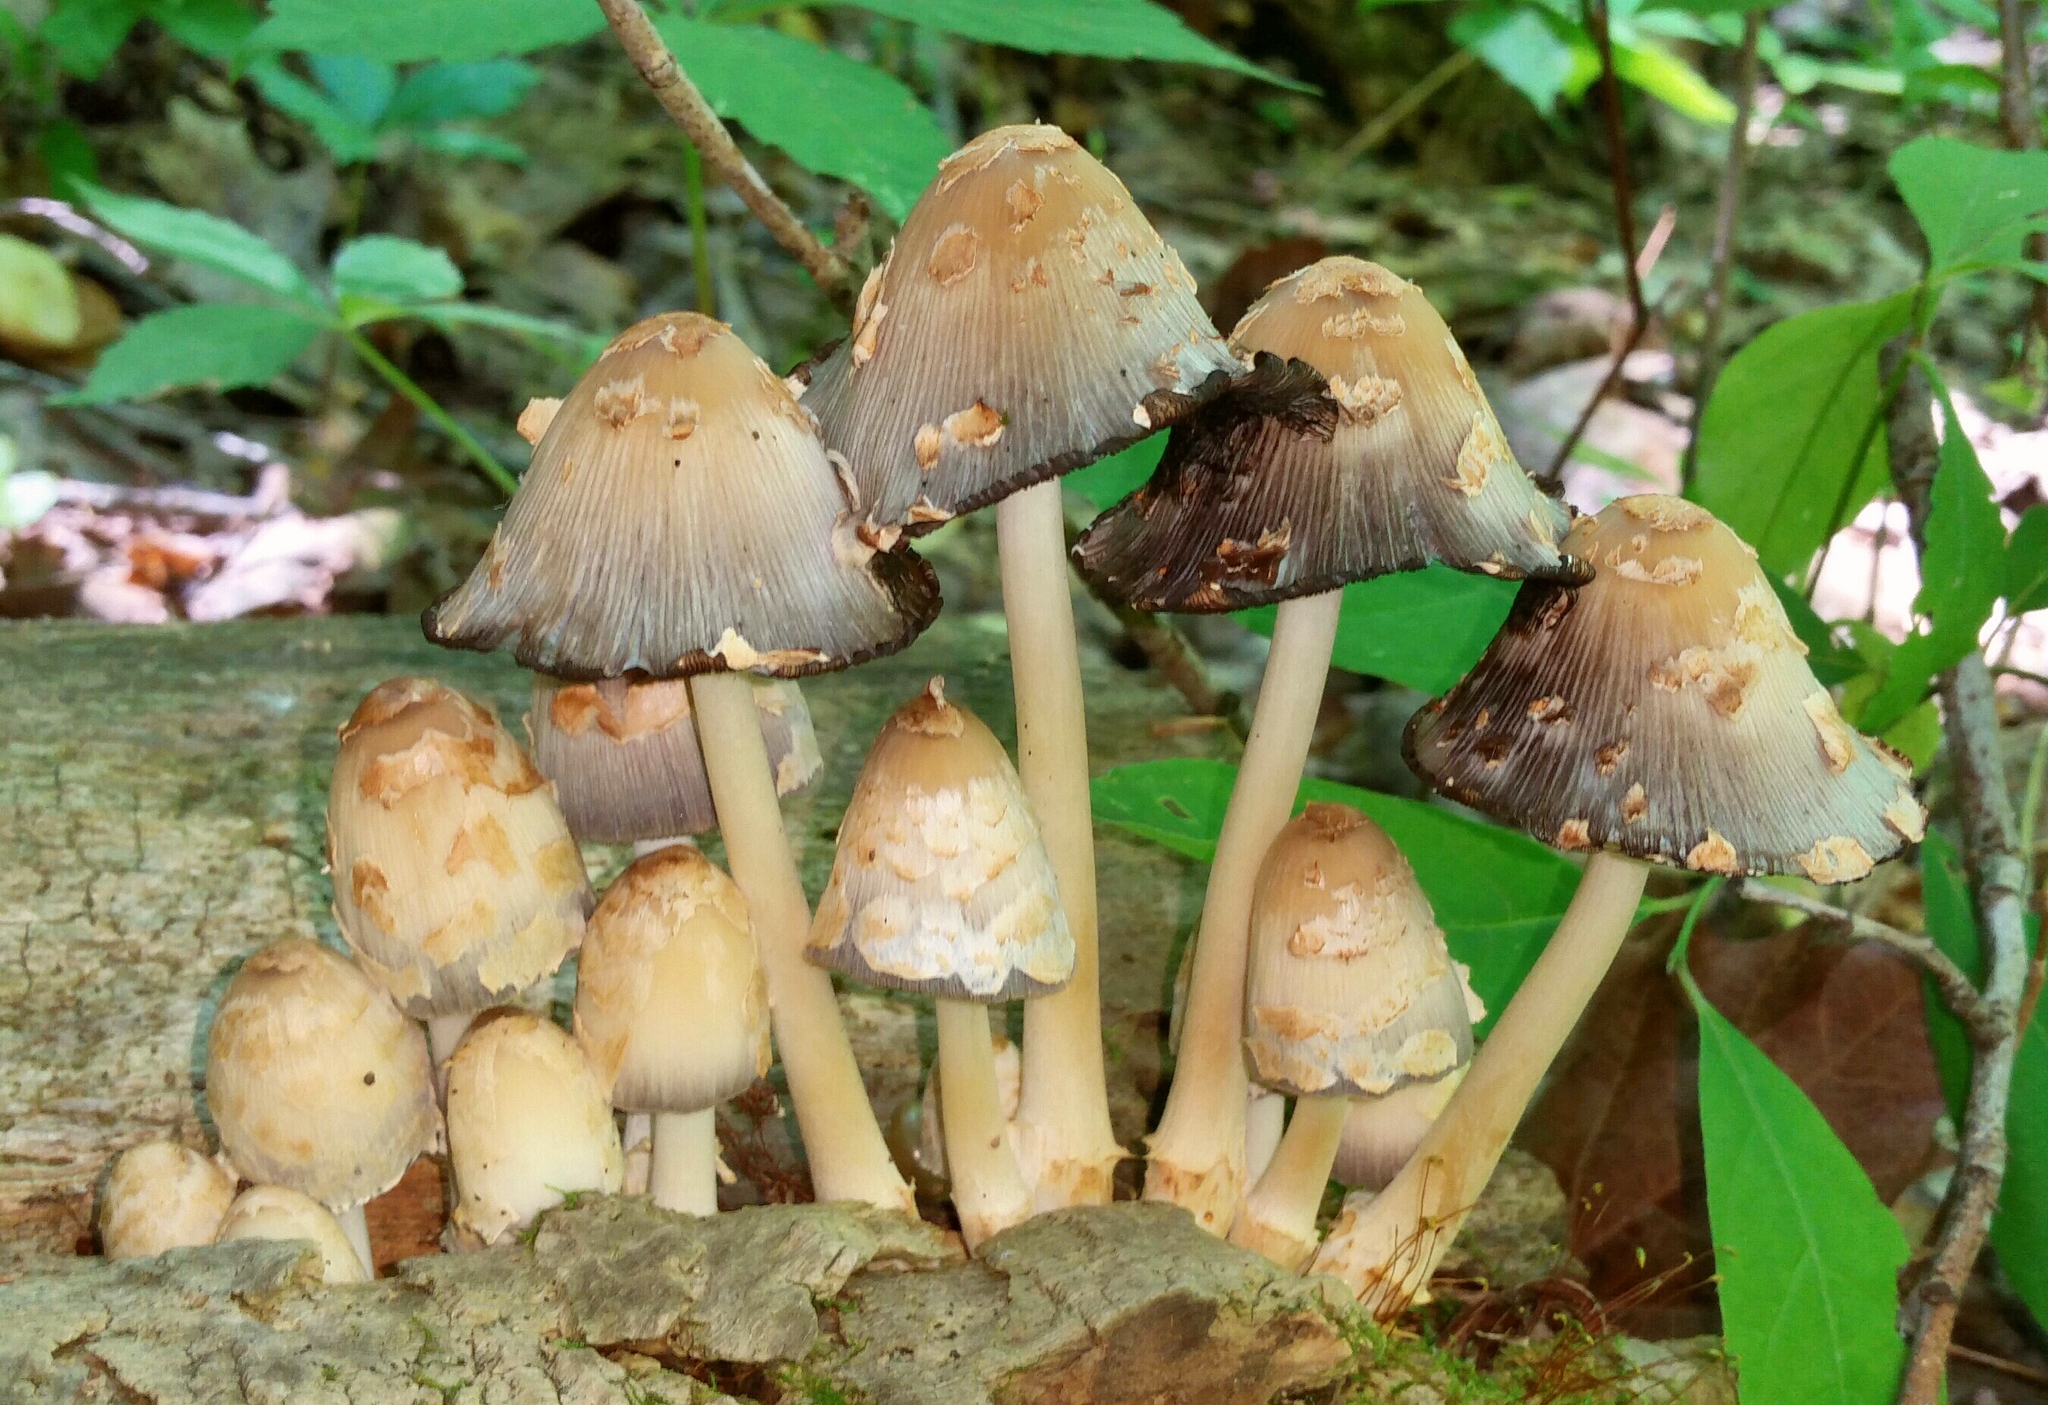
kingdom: Fungi
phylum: Basidiomycota
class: Agaricomycetes
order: Agaricales
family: Psathyrellaceae
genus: Coprinopsis
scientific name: Coprinopsis variegata
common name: Scaly ink cap
